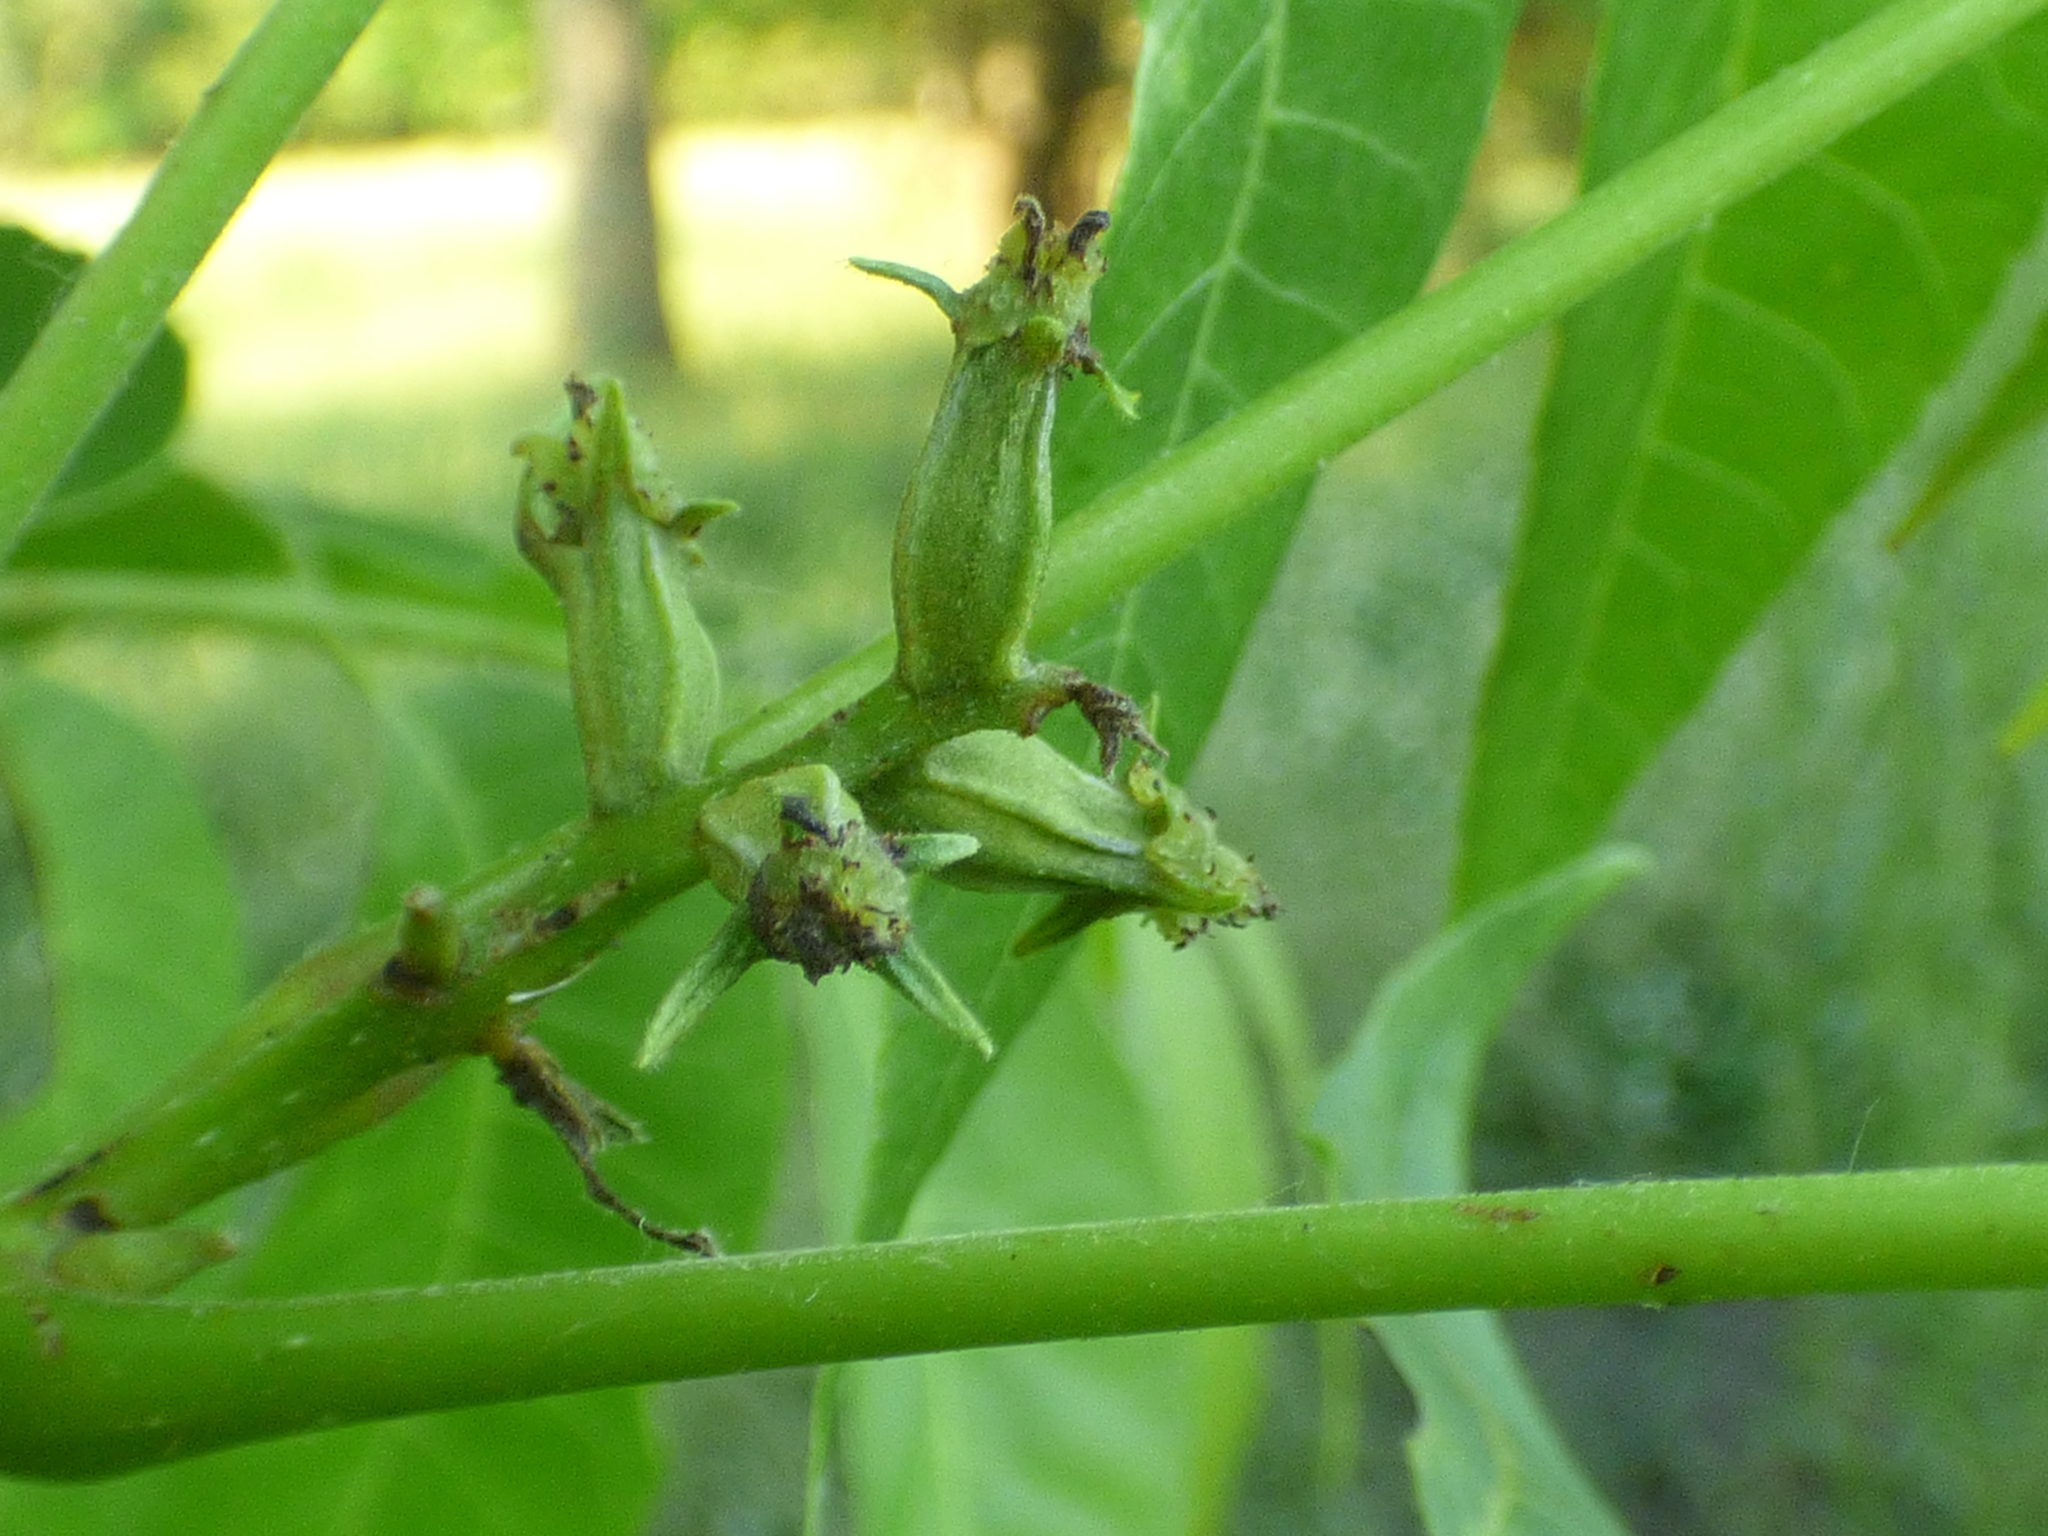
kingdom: Plantae
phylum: Tracheophyta
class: Magnoliopsida
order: Fagales
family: Juglandaceae
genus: Carya
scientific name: Carya illinoinensis
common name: Pecan
